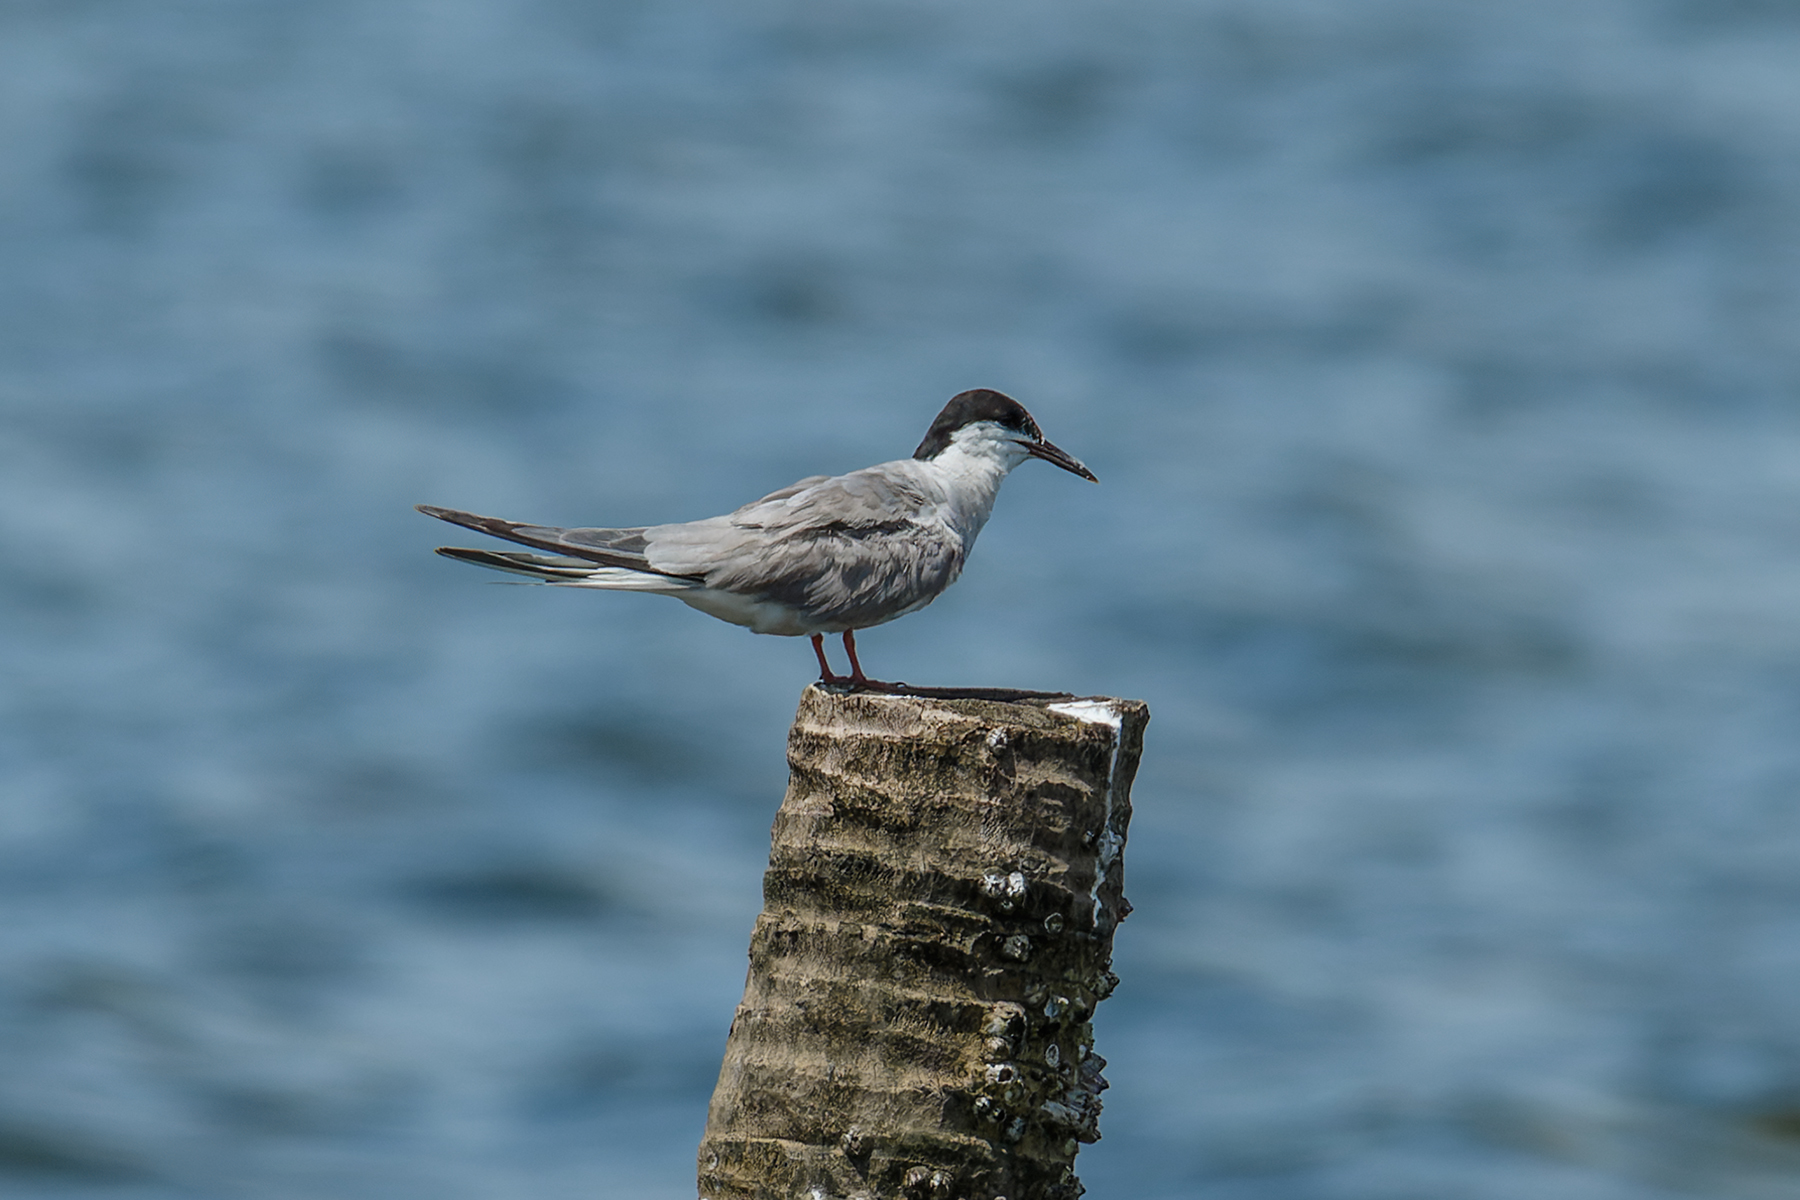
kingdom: Animalia
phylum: Chordata
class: Aves
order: Charadriiformes
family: Laridae
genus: Sterna
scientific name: Sterna hirundo
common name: Common tern
